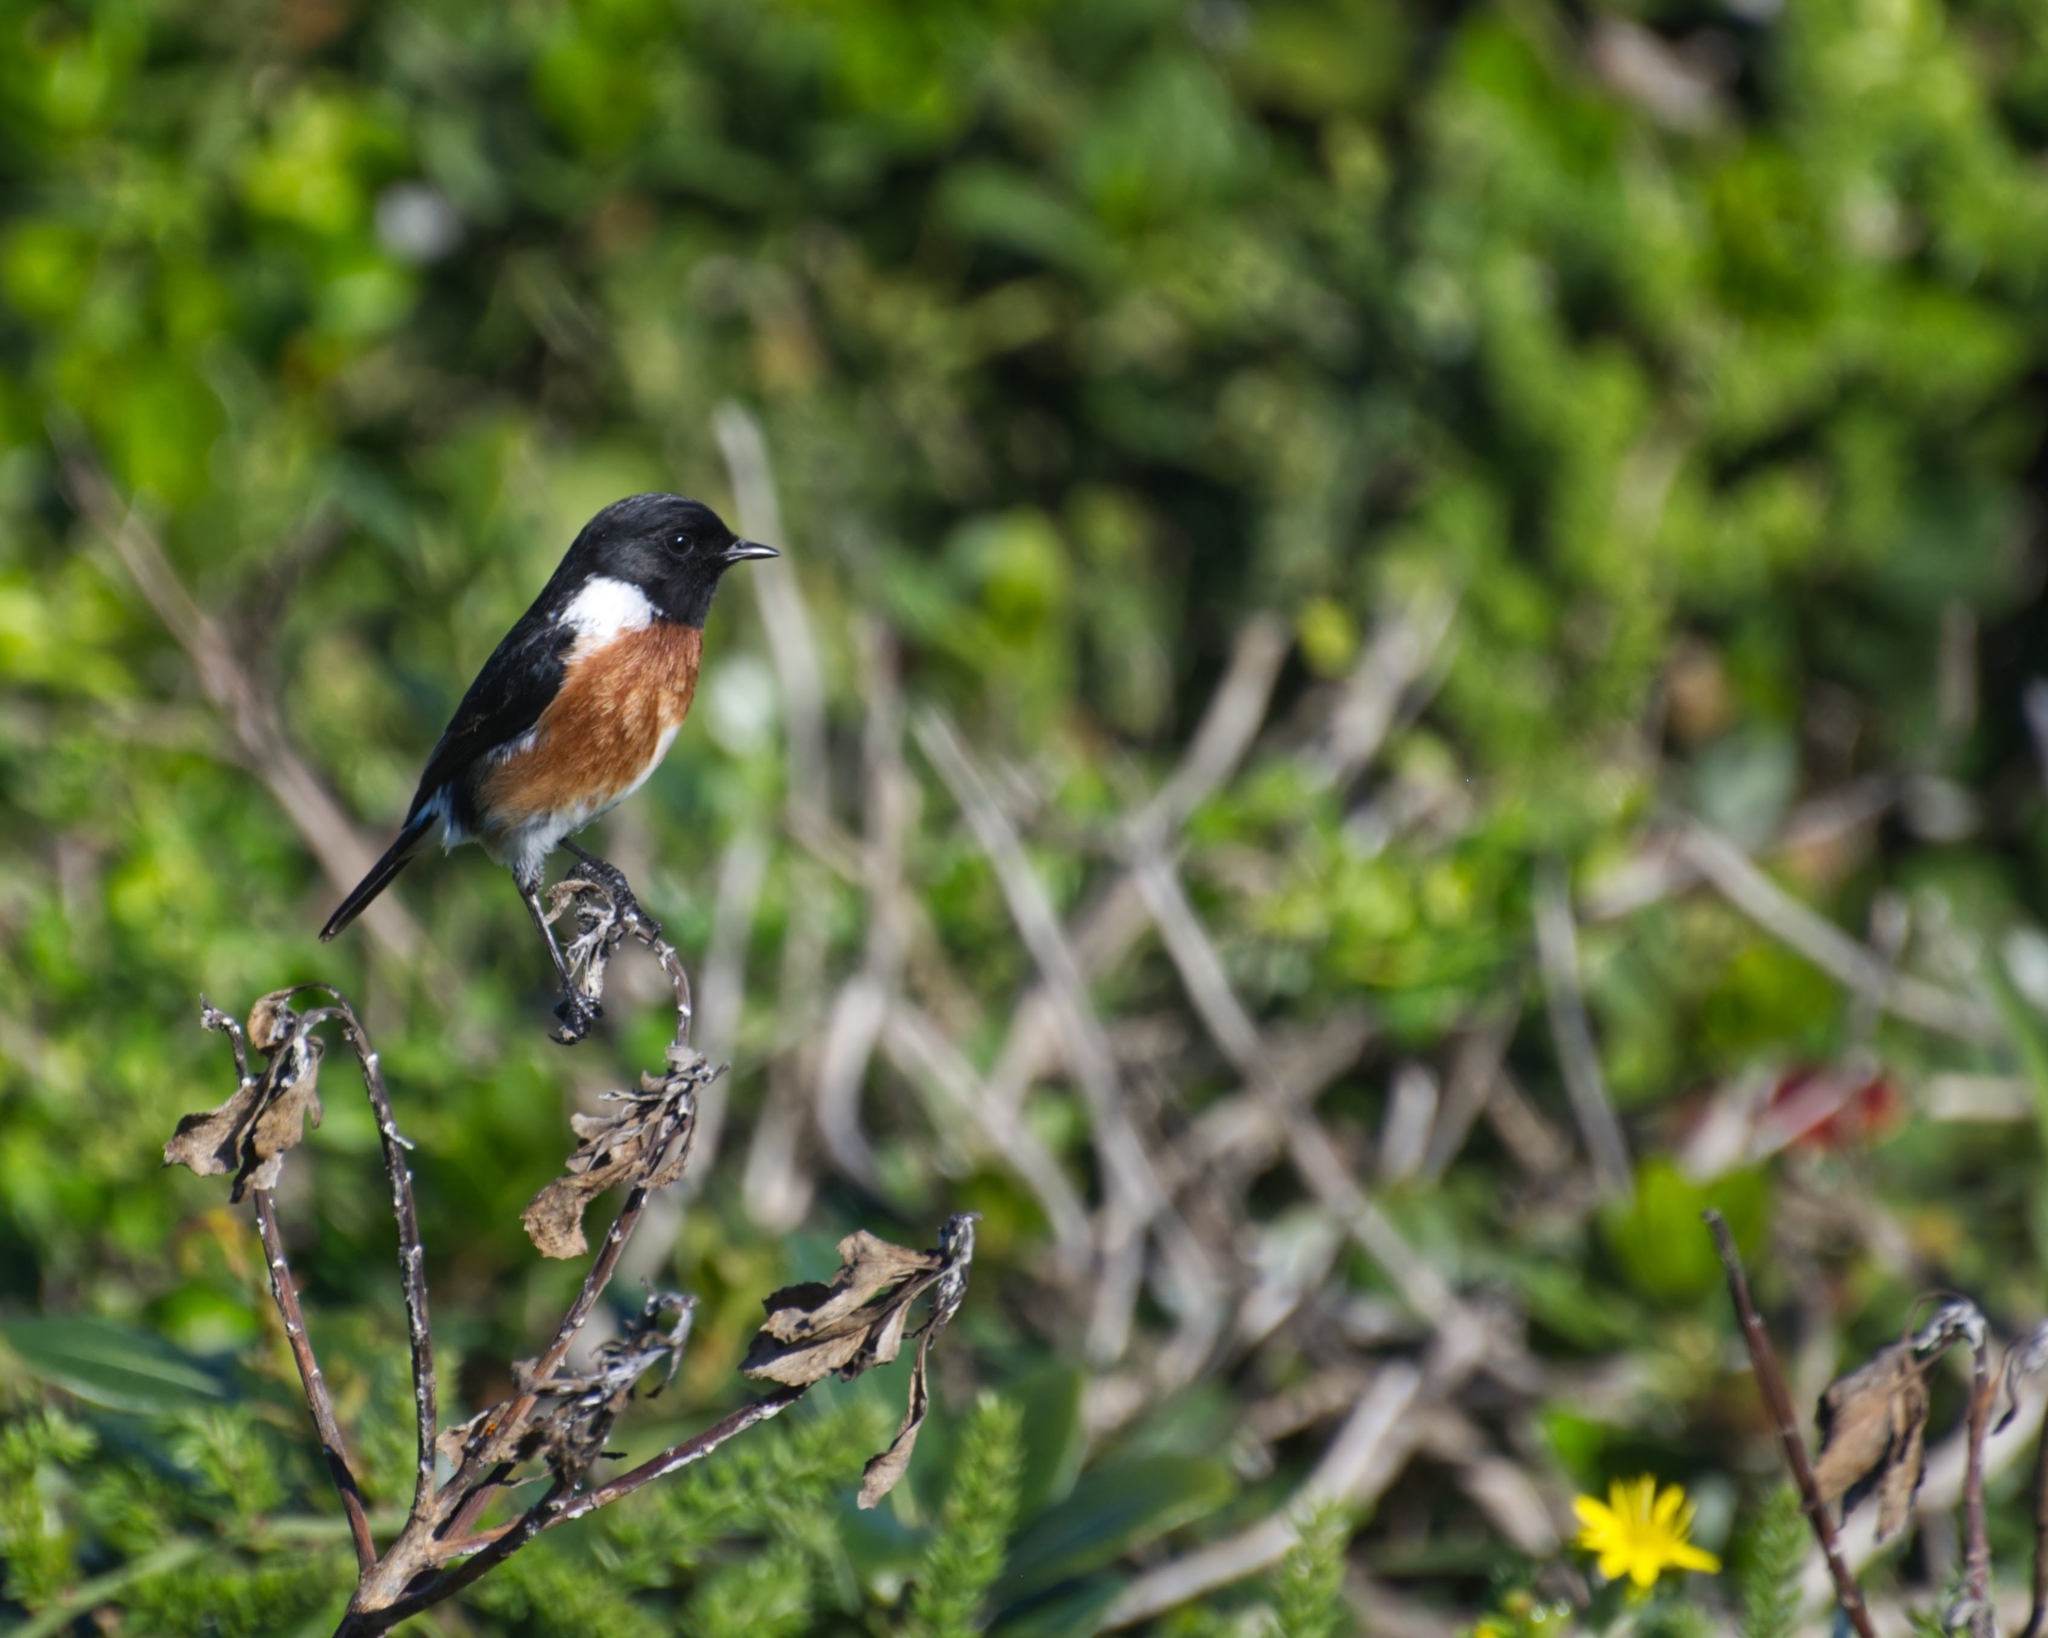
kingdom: Animalia
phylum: Chordata
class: Aves
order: Passeriformes
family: Muscicapidae
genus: Saxicola
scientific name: Saxicola torquatus
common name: African stonechat
